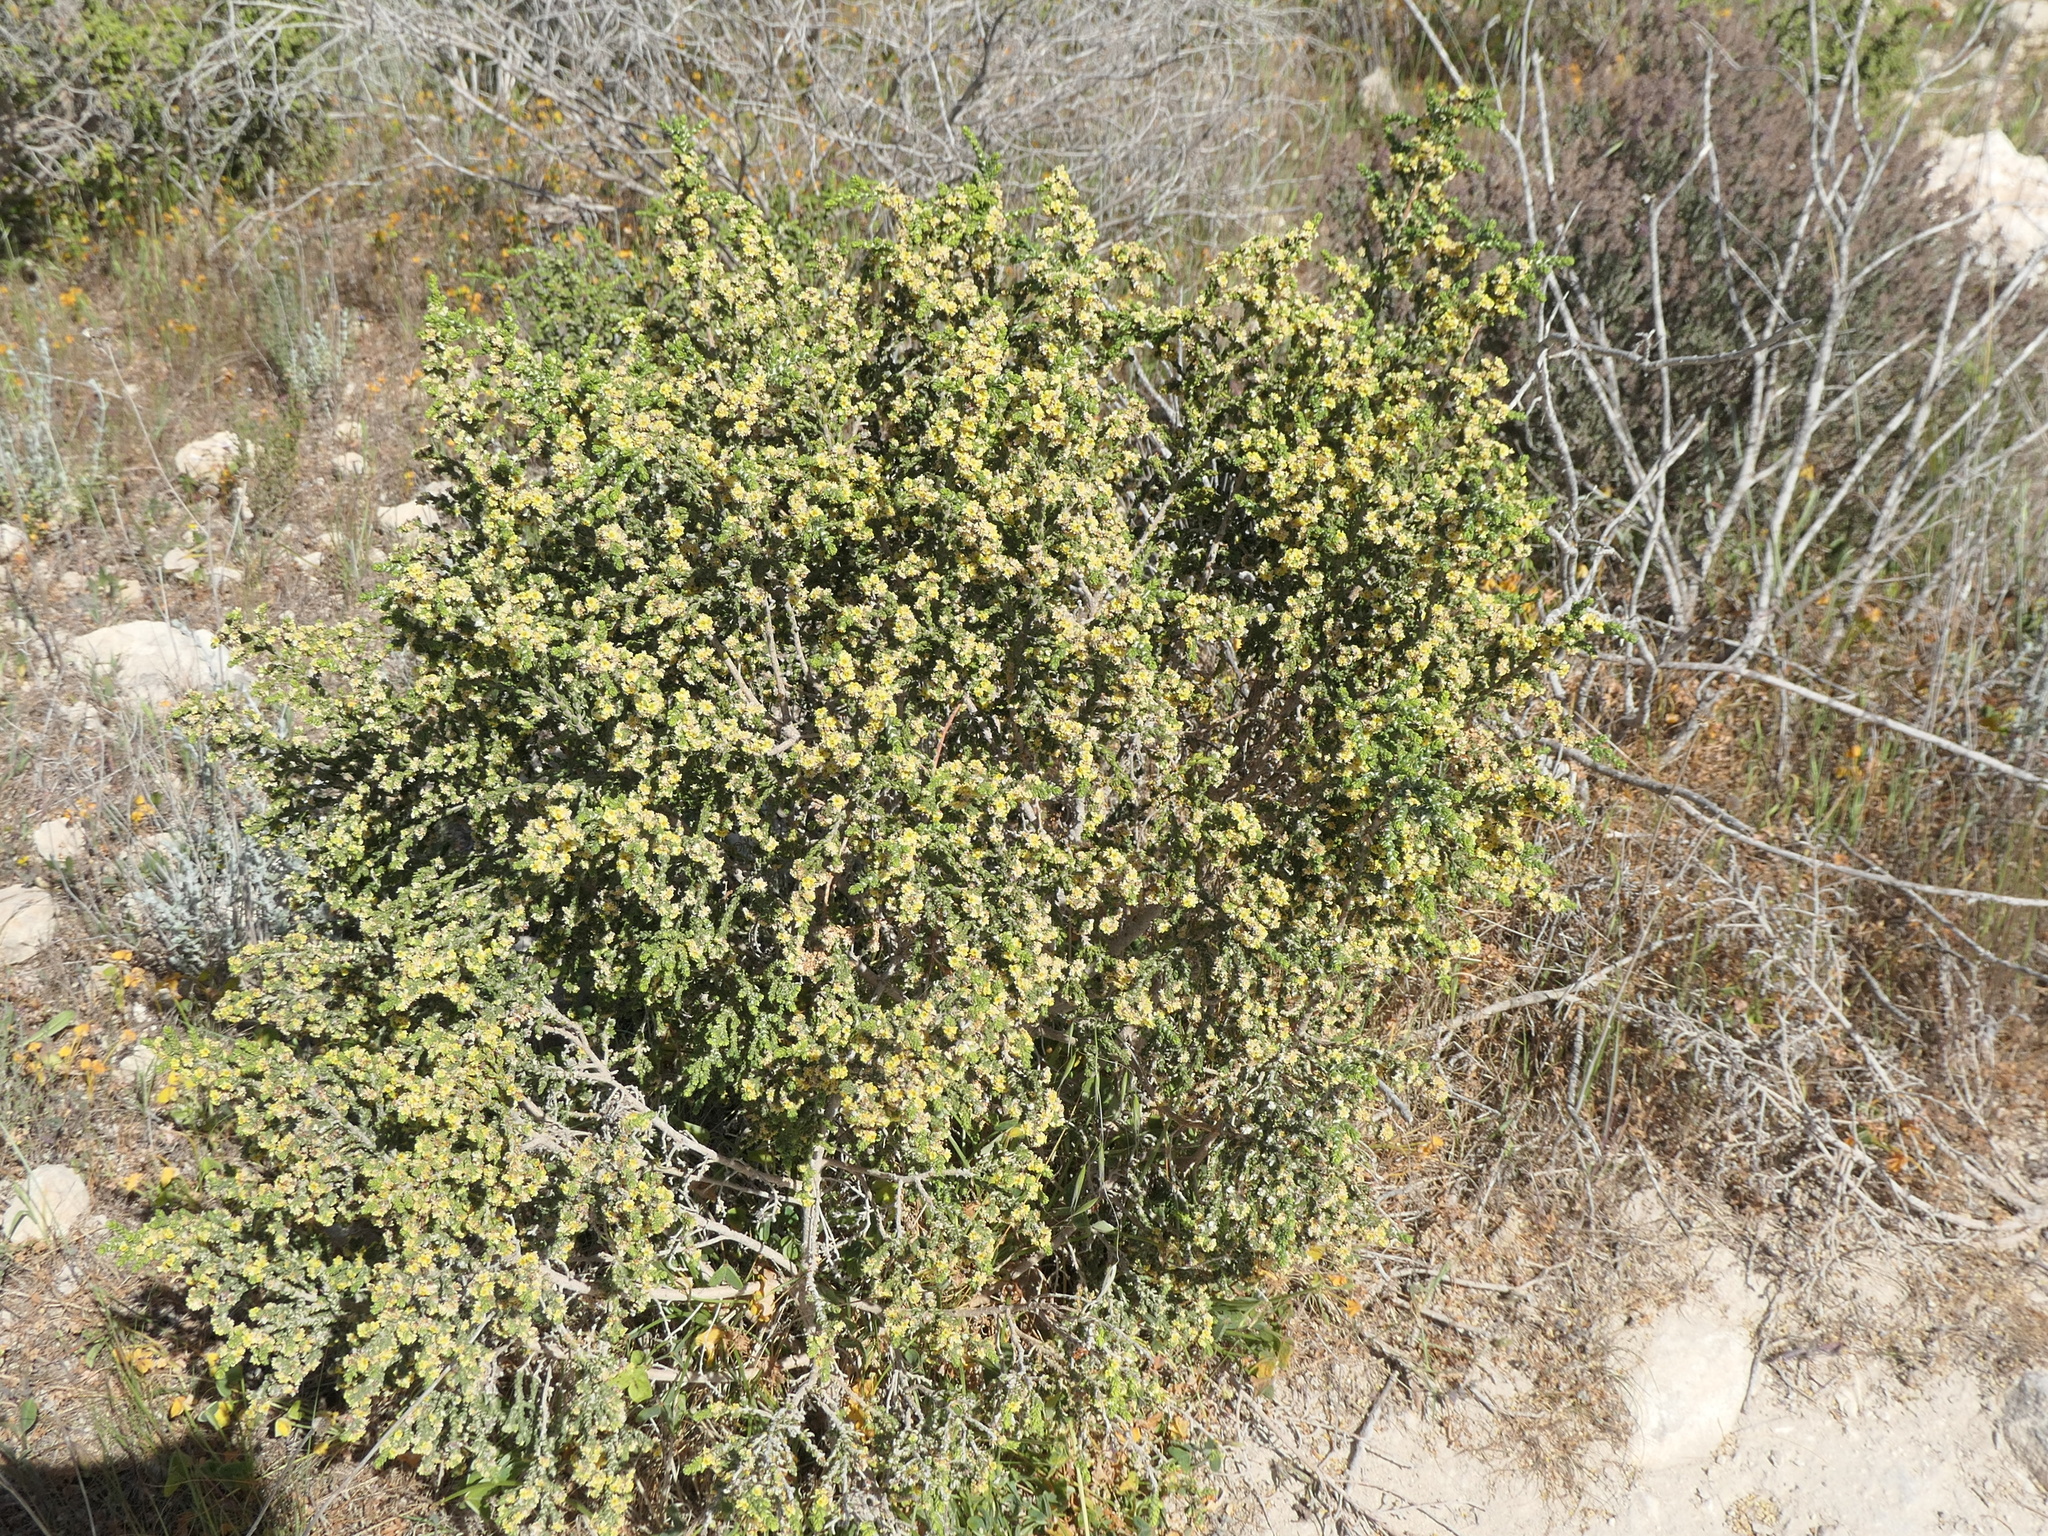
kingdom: Plantae
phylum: Tracheophyta
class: Magnoliopsida
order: Malvales
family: Thymelaeaceae
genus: Thymelaea
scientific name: Thymelaea hirsuta
